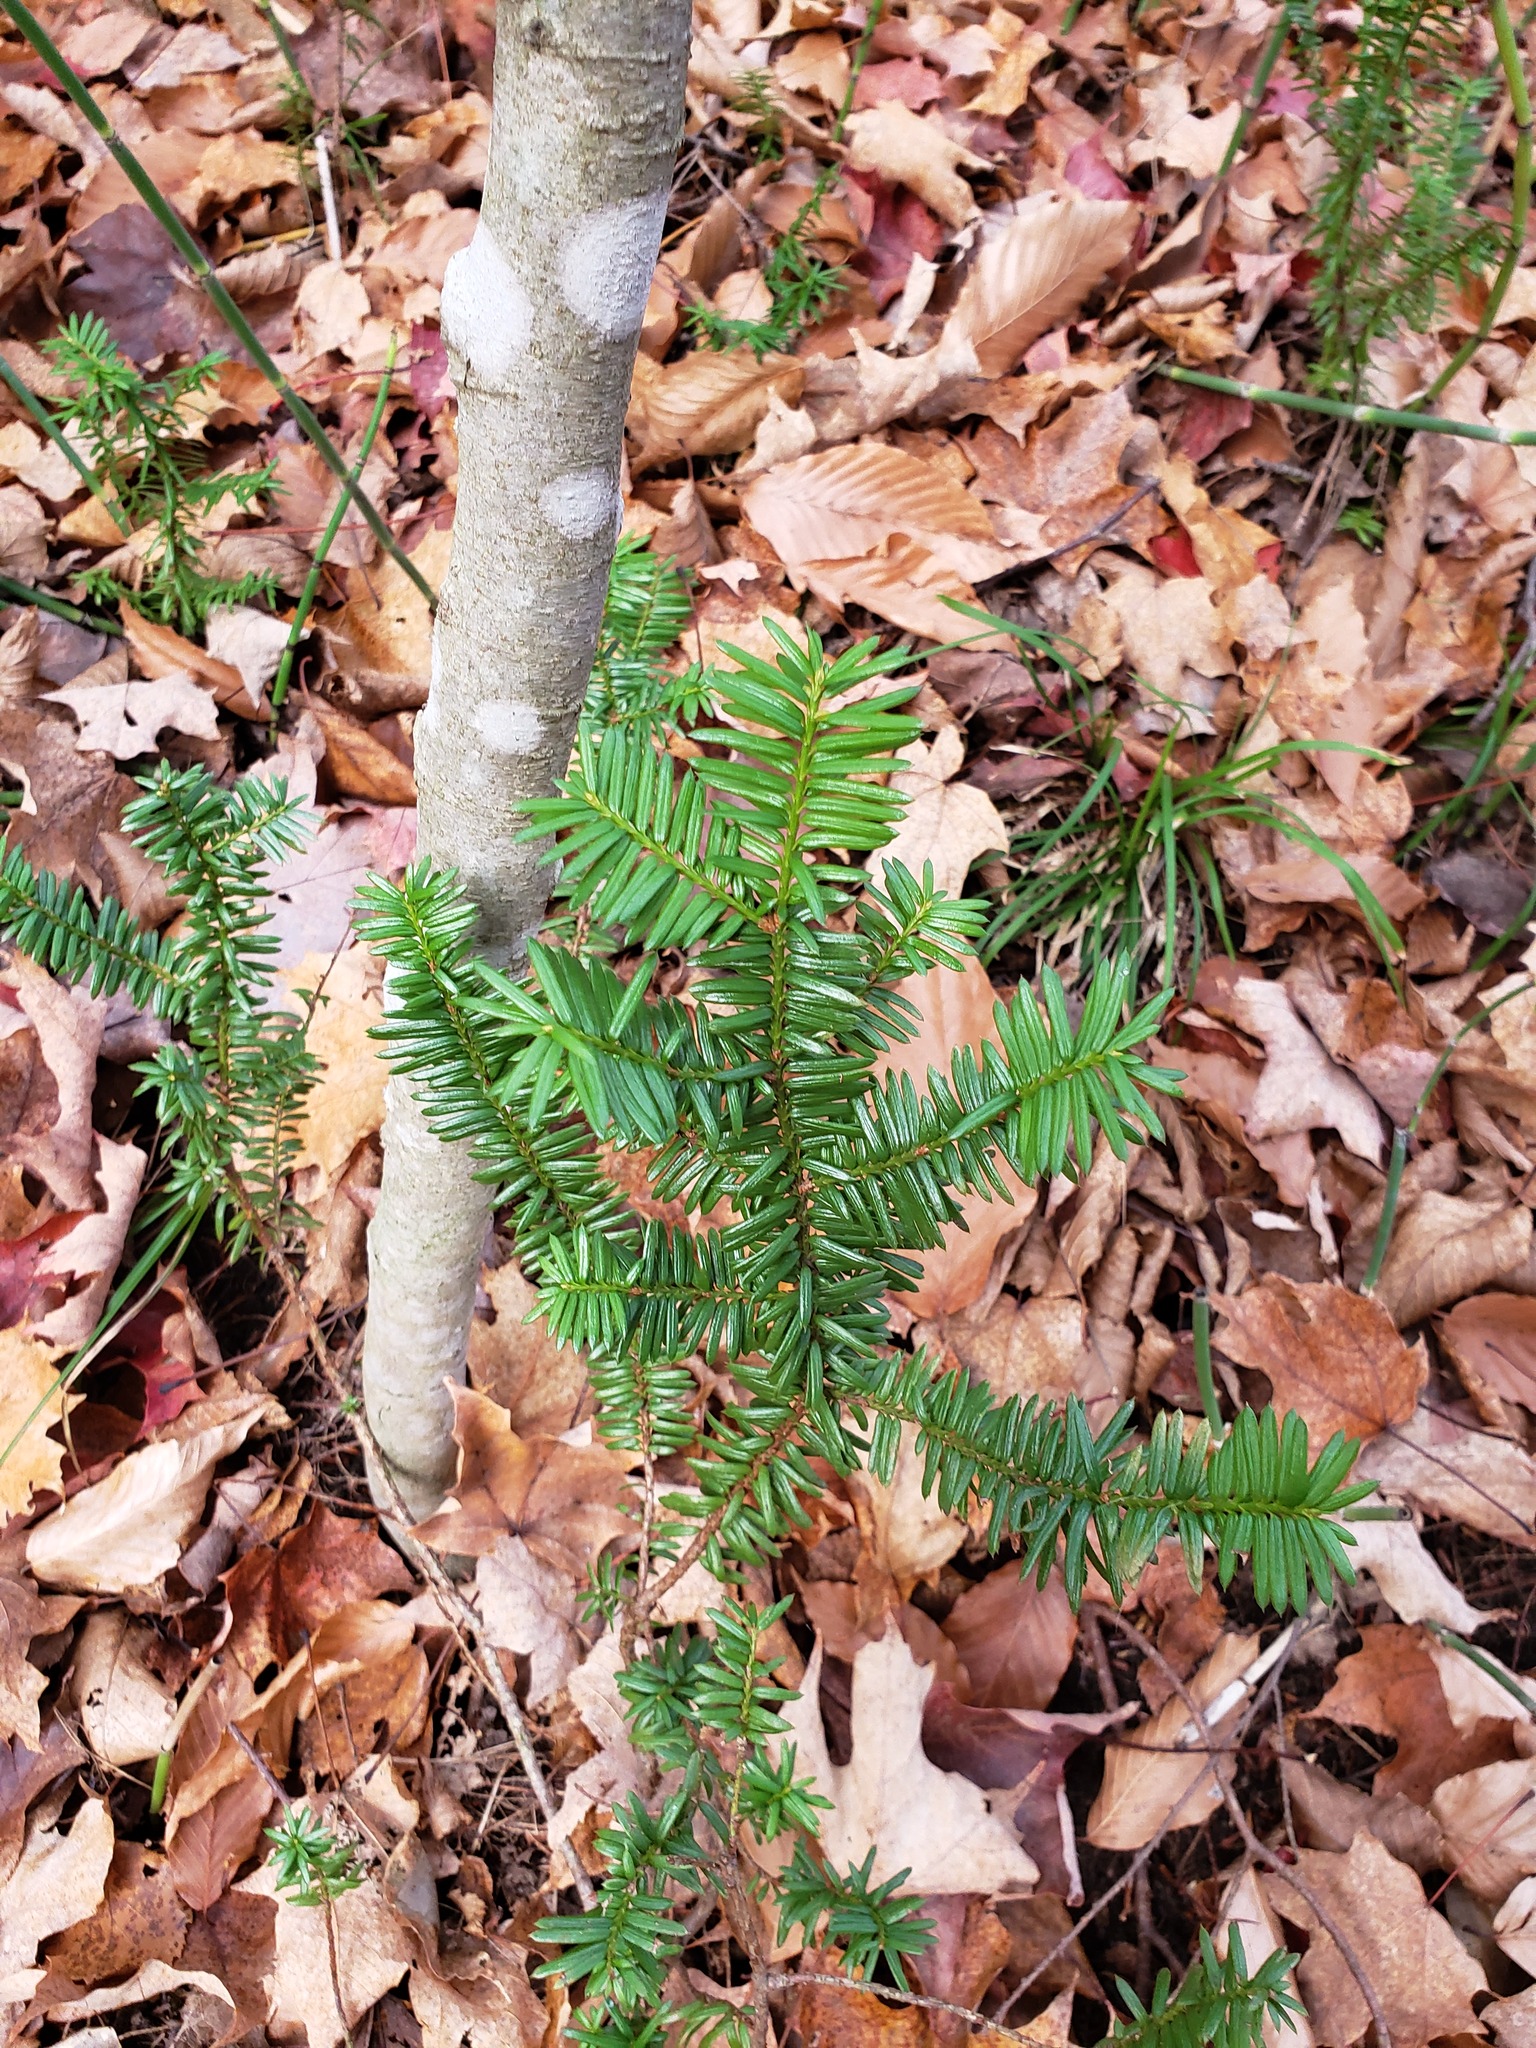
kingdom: Plantae
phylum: Tracheophyta
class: Pinopsida
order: Pinales
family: Taxaceae
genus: Taxus
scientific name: Taxus canadensis
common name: American yew
